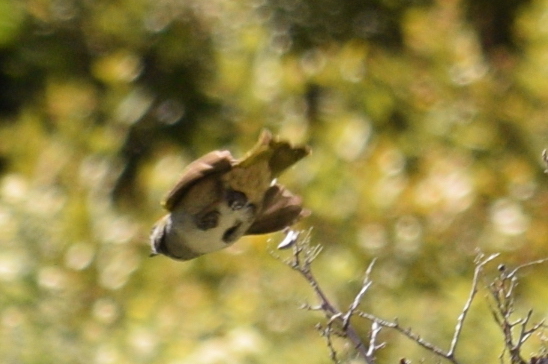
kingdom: Animalia
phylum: Chordata
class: Aves
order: Passeriformes
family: Passerellidae
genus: Pipilo
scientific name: Pipilo chlorurus
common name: Green-tailed towhee
